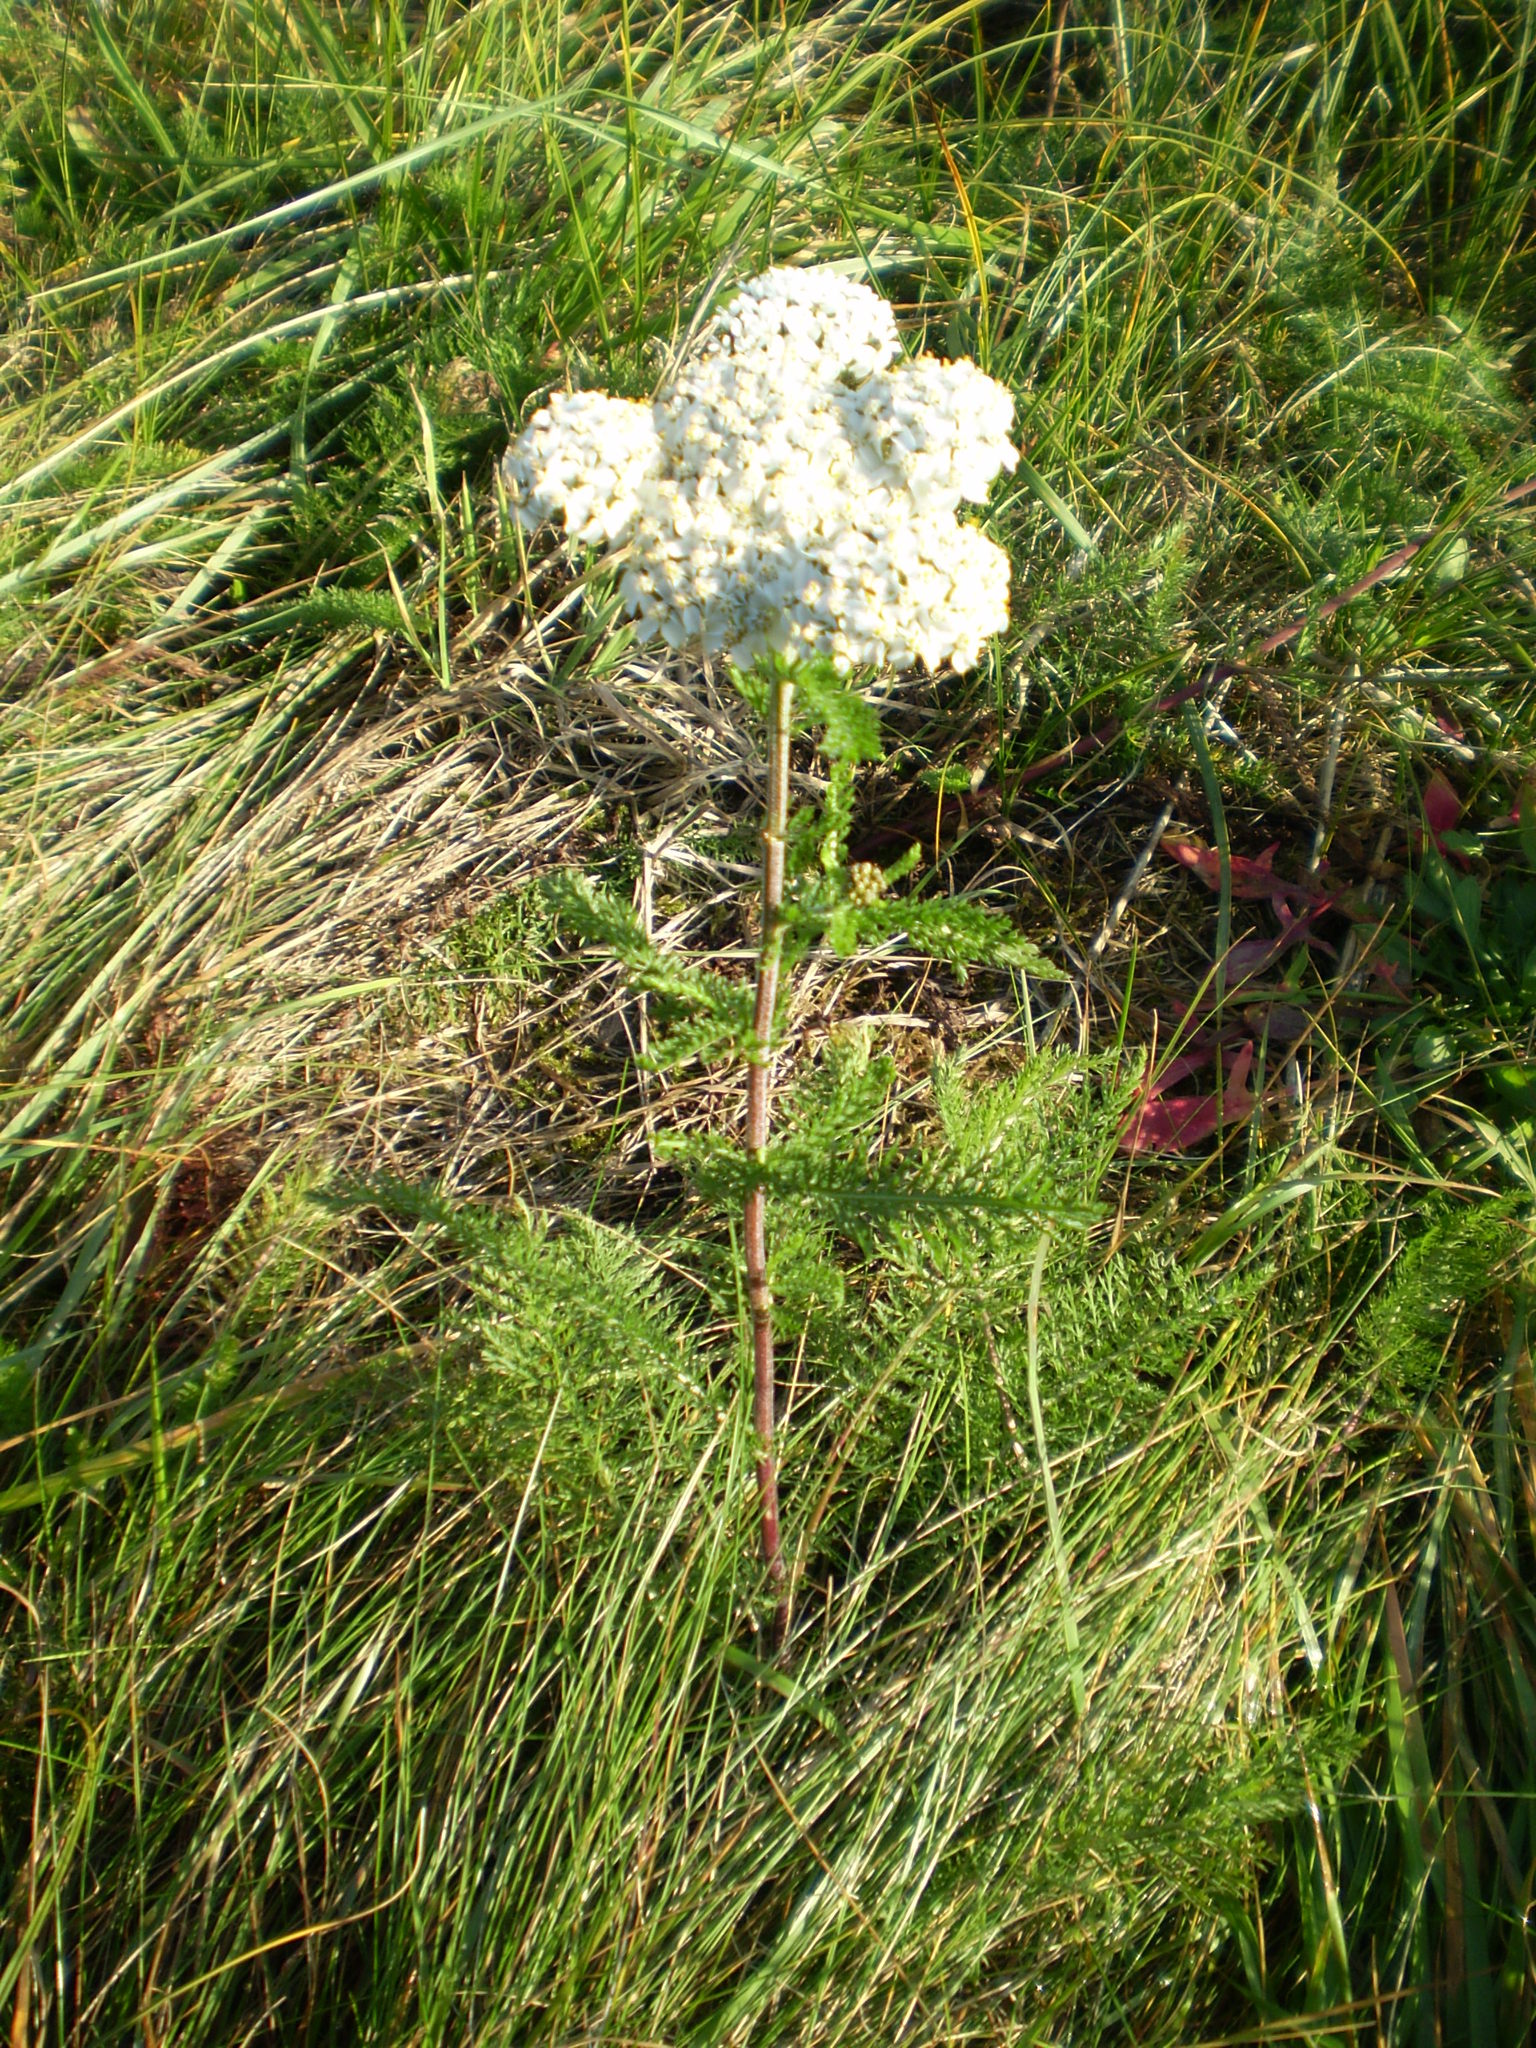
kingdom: Plantae
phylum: Tracheophyta
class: Magnoliopsida
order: Asterales
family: Asteraceae
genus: Achillea
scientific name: Achillea millefolium
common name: Yarrow
